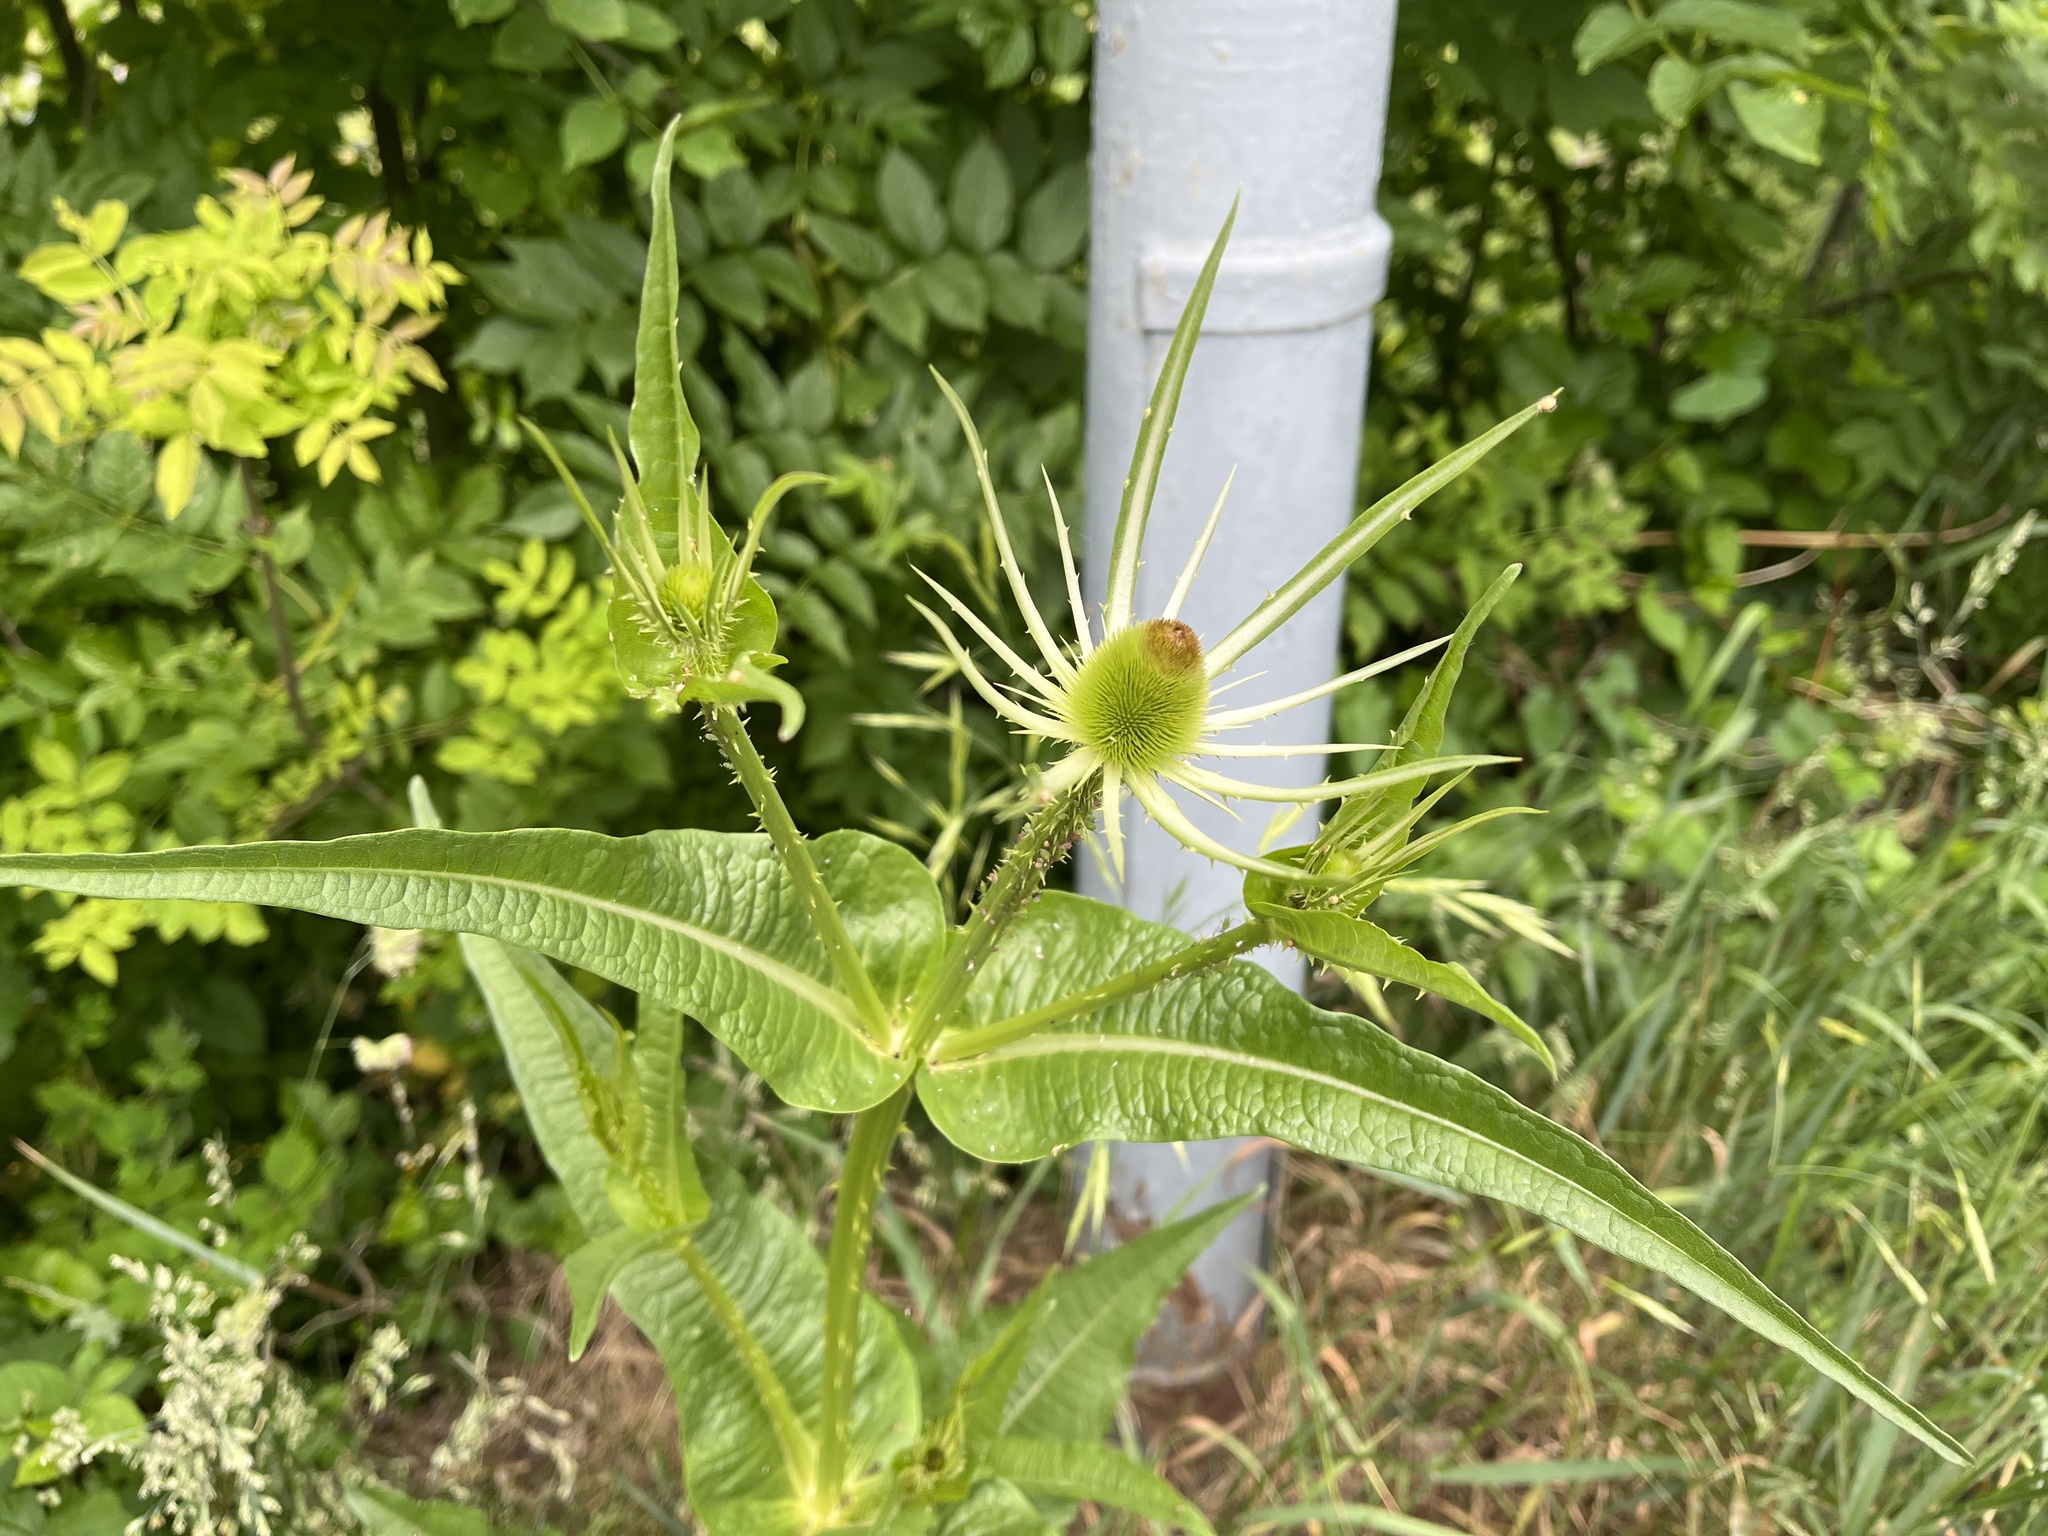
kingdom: Plantae
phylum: Tracheophyta
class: Magnoliopsida
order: Dipsacales
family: Caprifoliaceae
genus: Dipsacus
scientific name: Dipsacus fullonum
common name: Teasel
